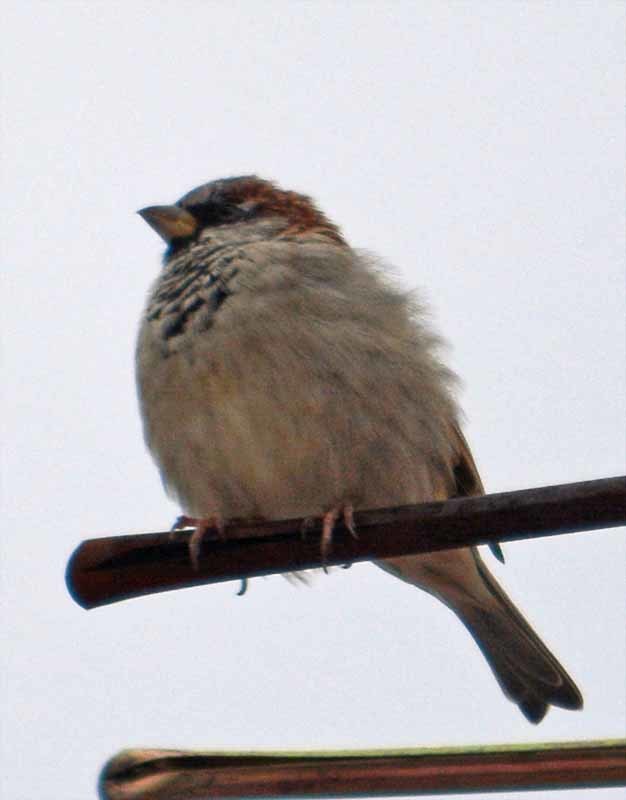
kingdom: Animalia
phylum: Chordata
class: Aves
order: Passeriformes
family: Passeridae
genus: Passer
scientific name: Passer domesticus
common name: House sparrow
